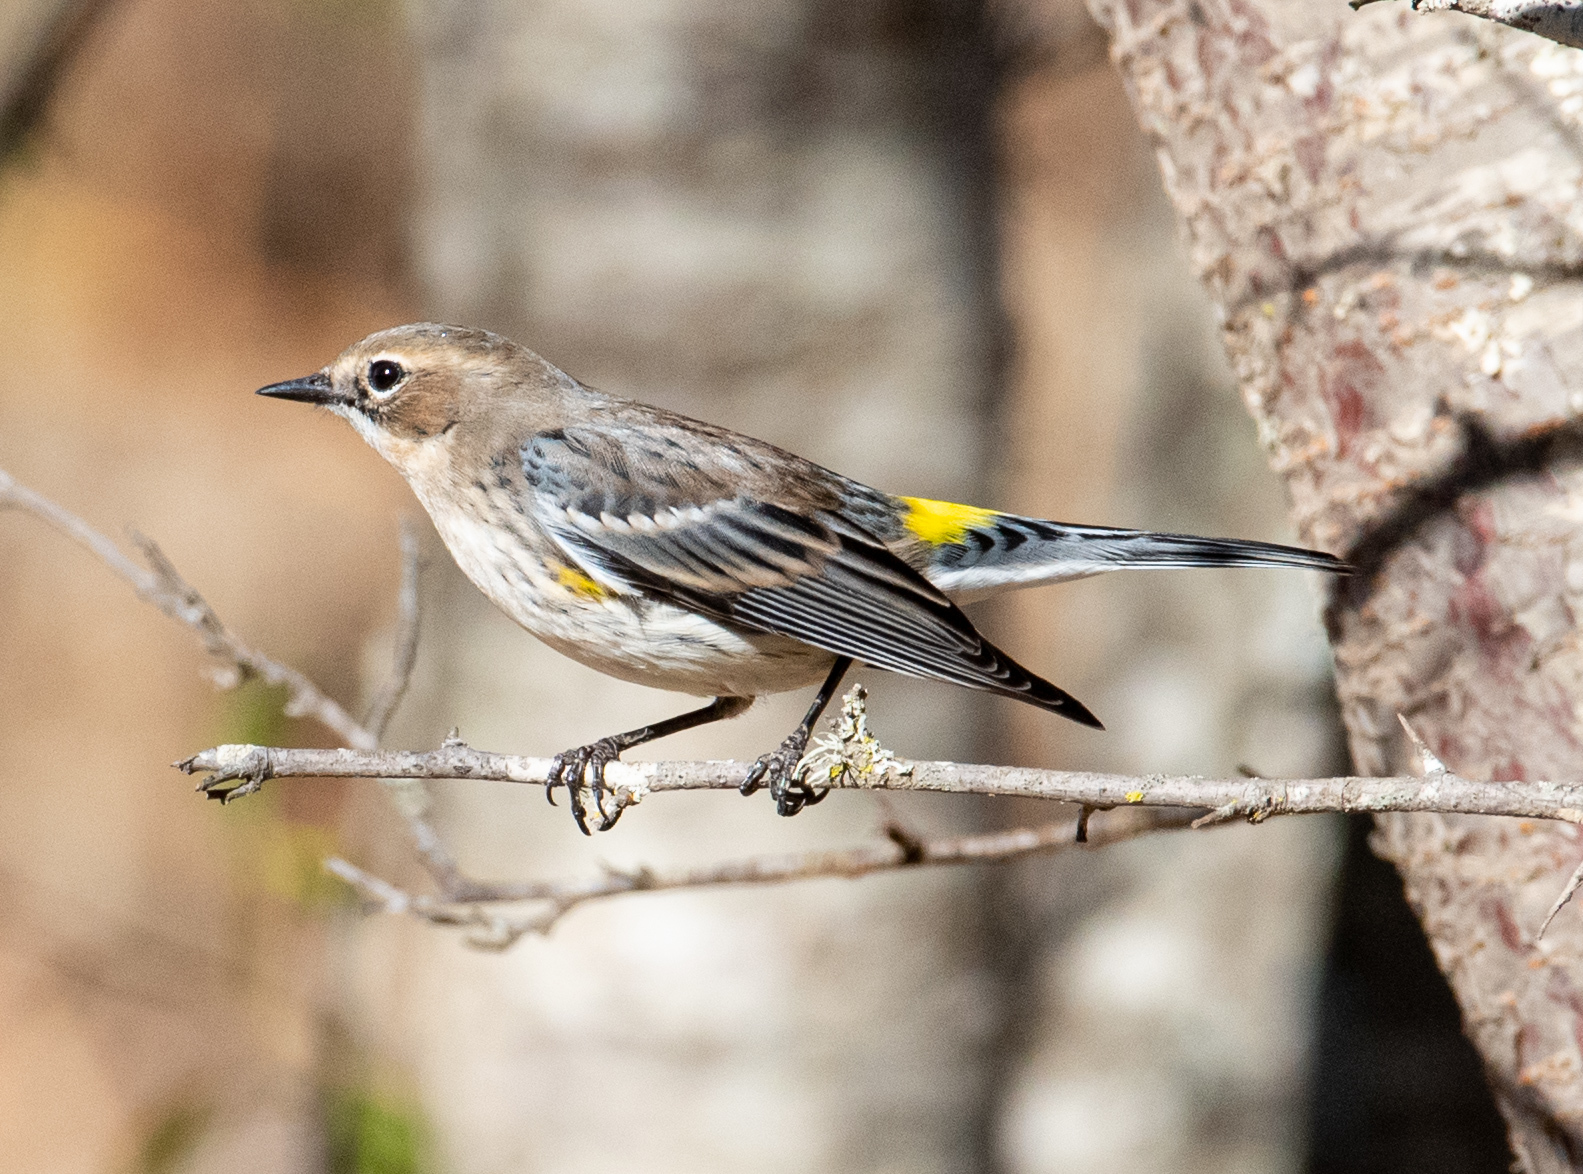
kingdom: Animalia
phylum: Chordata
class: Aves
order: Passeriformes
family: Parulidae
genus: Setophaga
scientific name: Setophaga coronata
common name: Myrtle warbler
